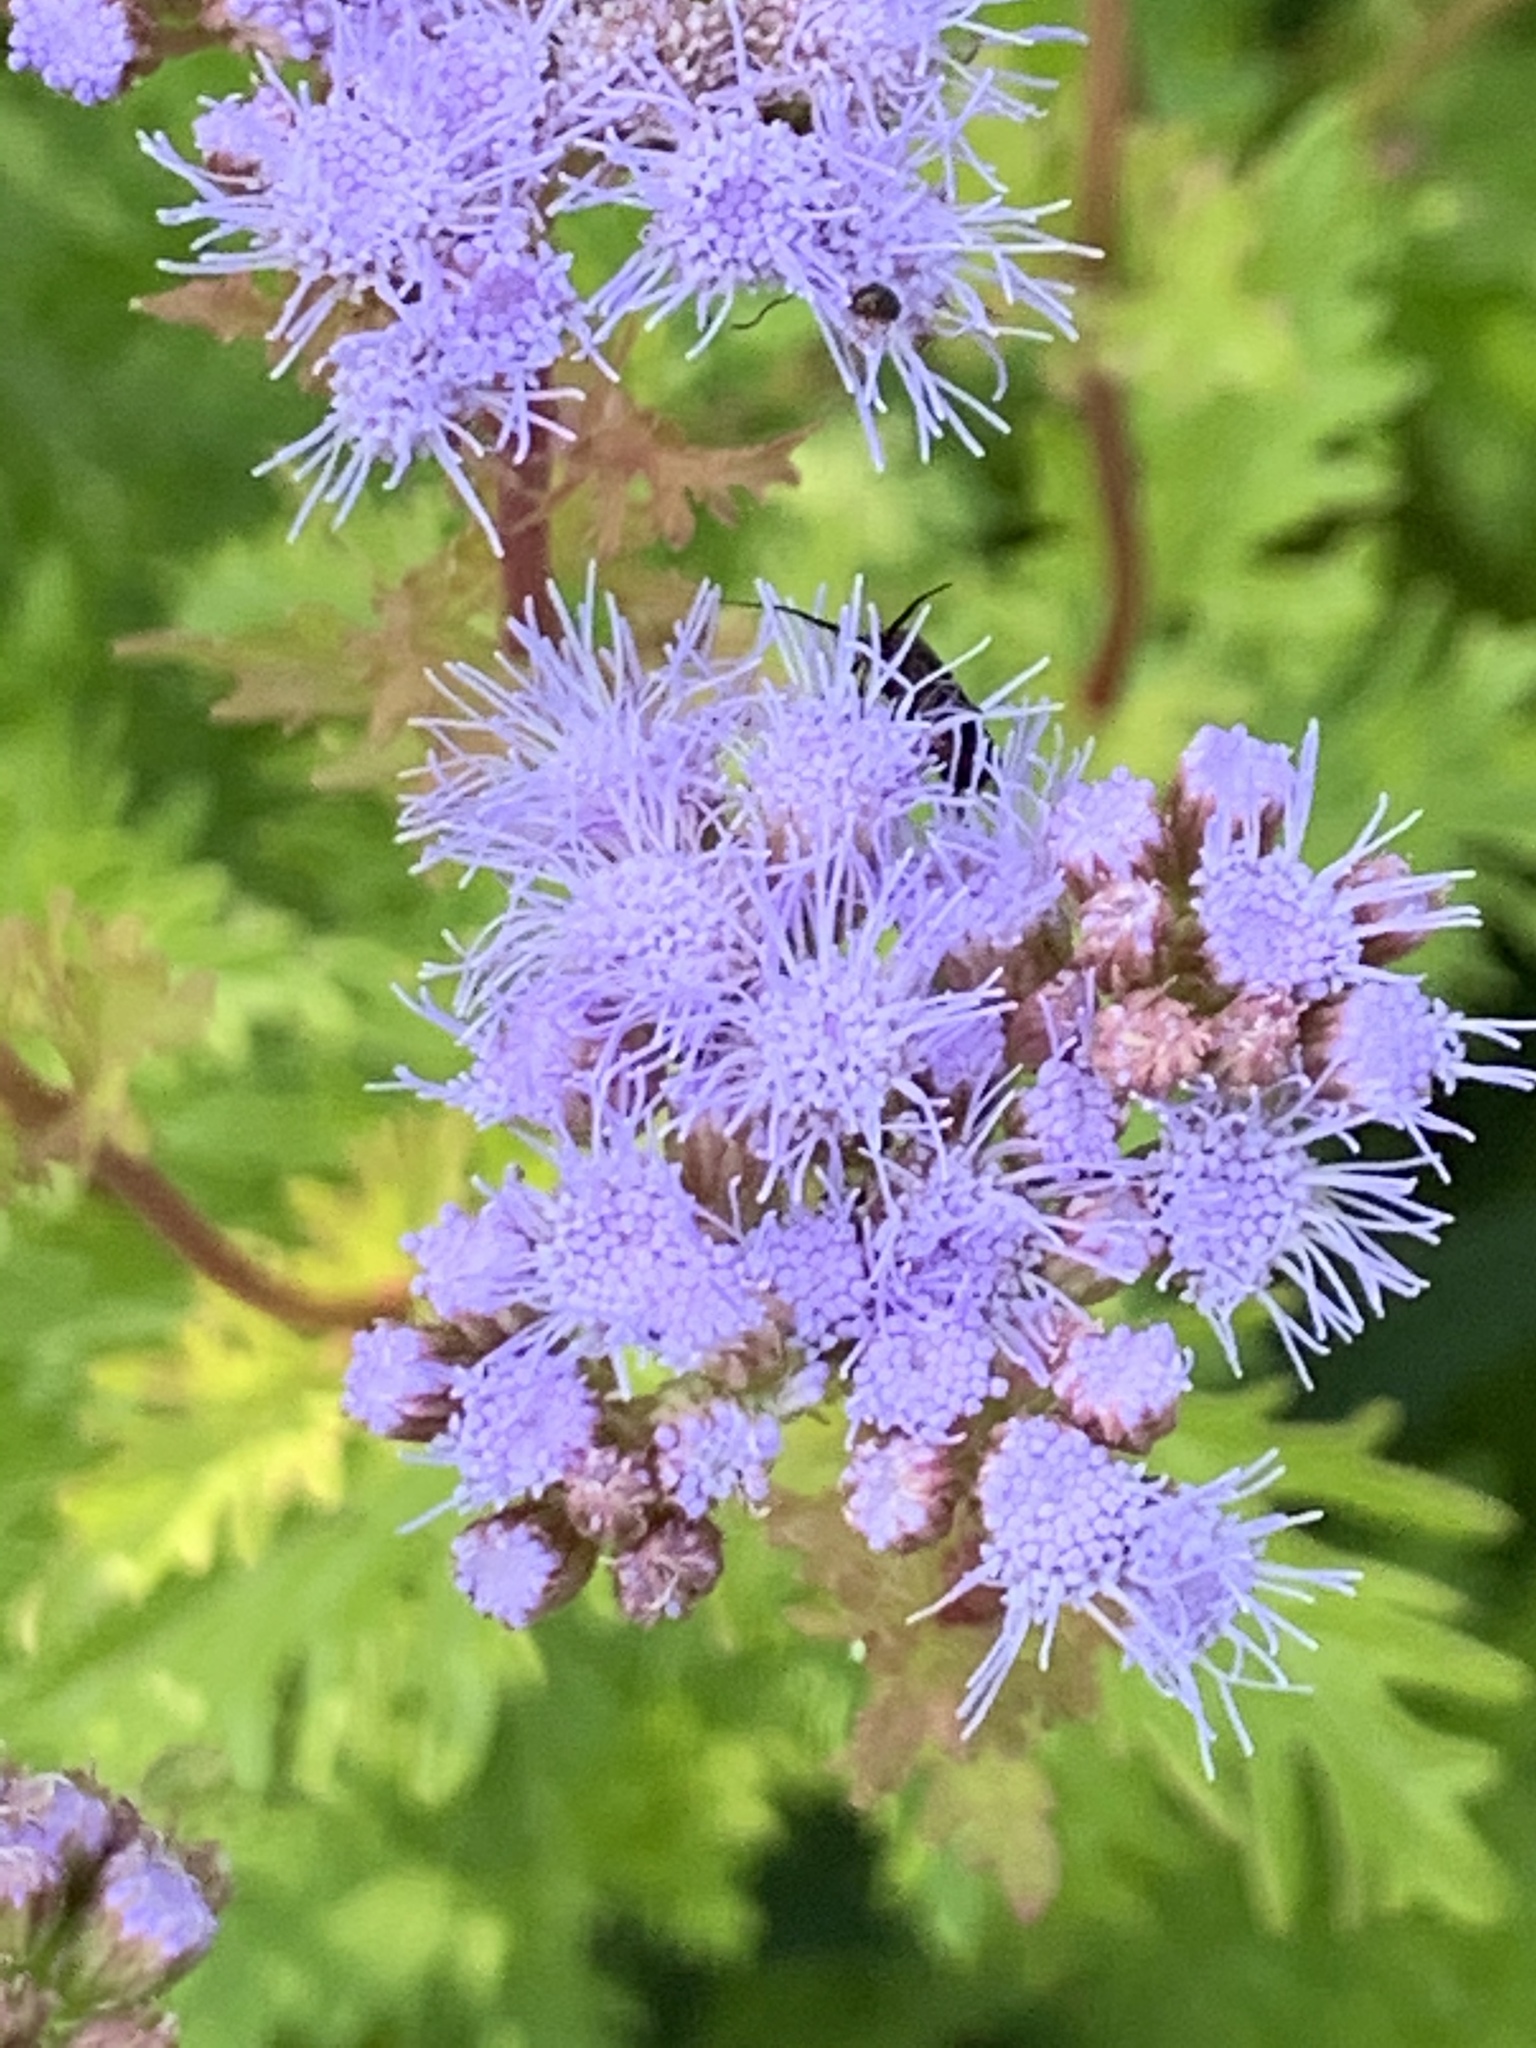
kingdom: Plantae
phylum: Tracheophyta
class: Magnoliopsida
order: Asterales
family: Asteraceae
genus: Conoclinium
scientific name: Conoclinium coelestinum
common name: Blue mistflower
